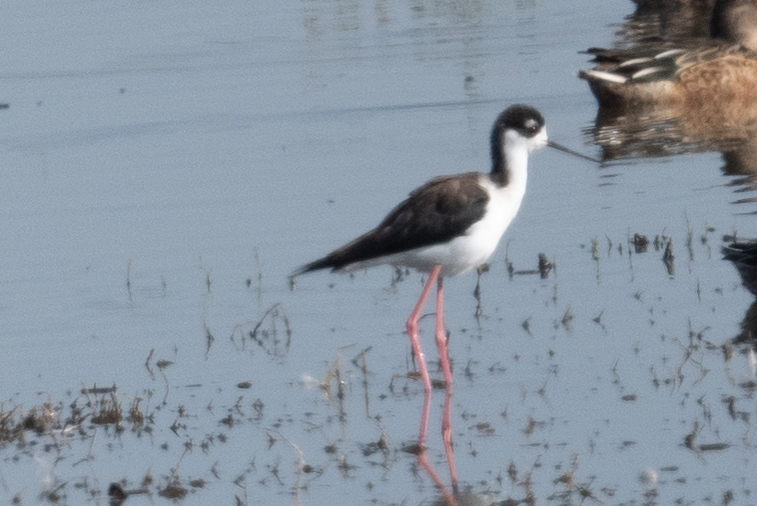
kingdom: Animalia
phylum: Chordata
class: Aves
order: Charadriiformes
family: Recurvirostridae
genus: Himantopus
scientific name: Himantopus mexicanus
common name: Black-necked stilt
